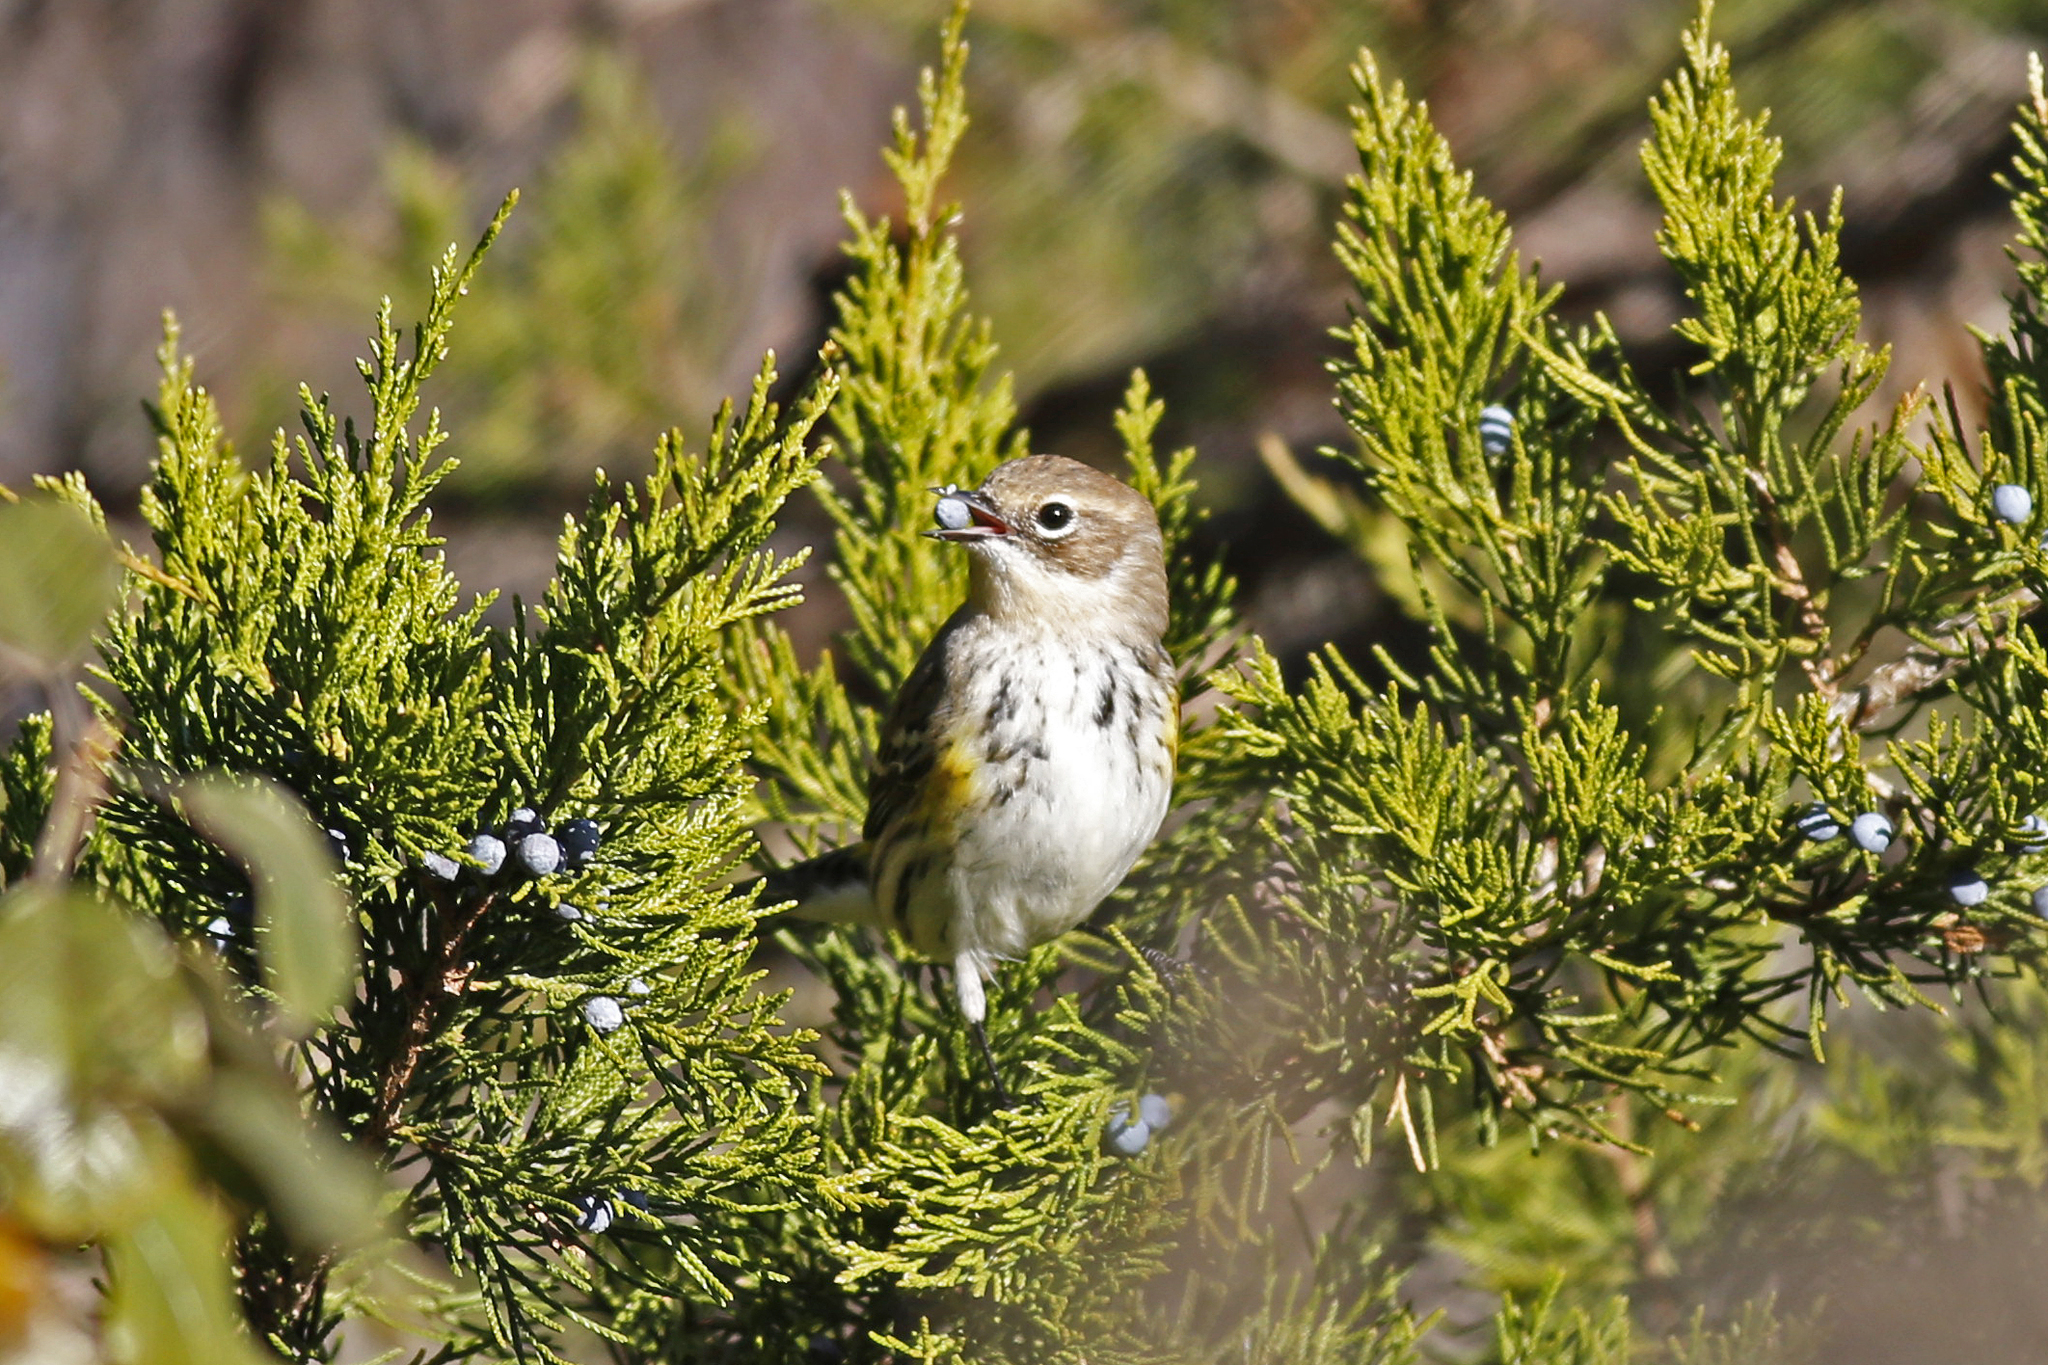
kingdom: Animalia
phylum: Chordata
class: Aves
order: Passeriformes
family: Parulidae
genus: Setophaga
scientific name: Setophaga coronata
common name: Myrtle warbler
